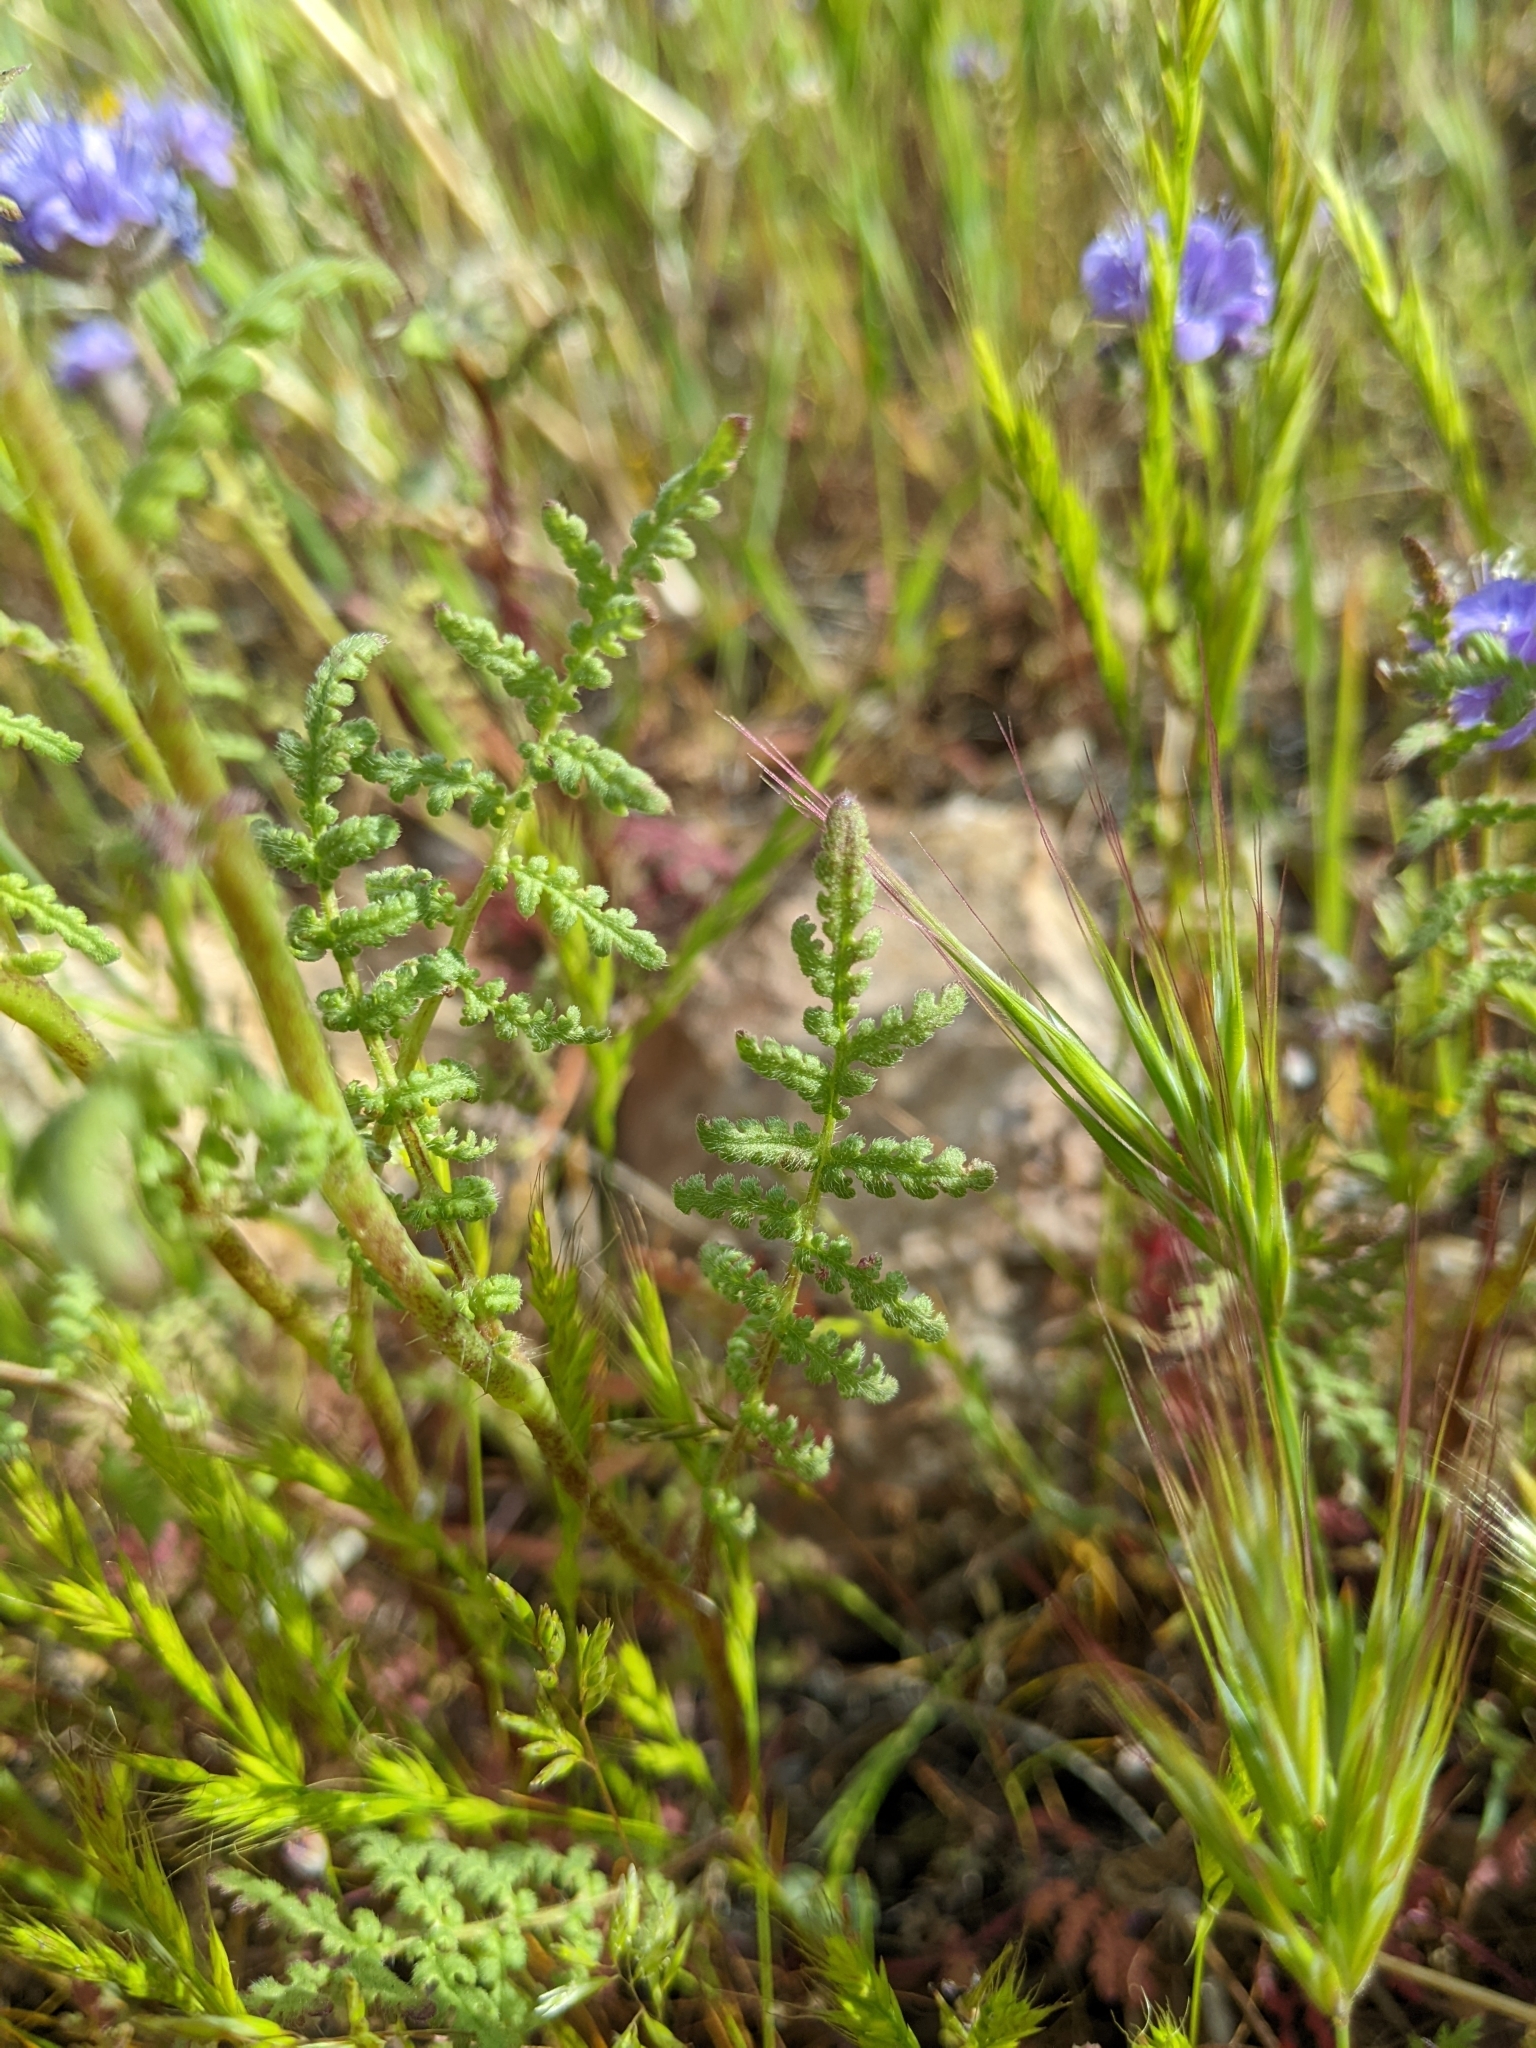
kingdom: Plantae
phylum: Tracheophyta
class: Magnoliopsida
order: Boraginales
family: Hydrophyllaceae
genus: Phacelia
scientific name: Phacelia tanacetifolia
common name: Phacelia
